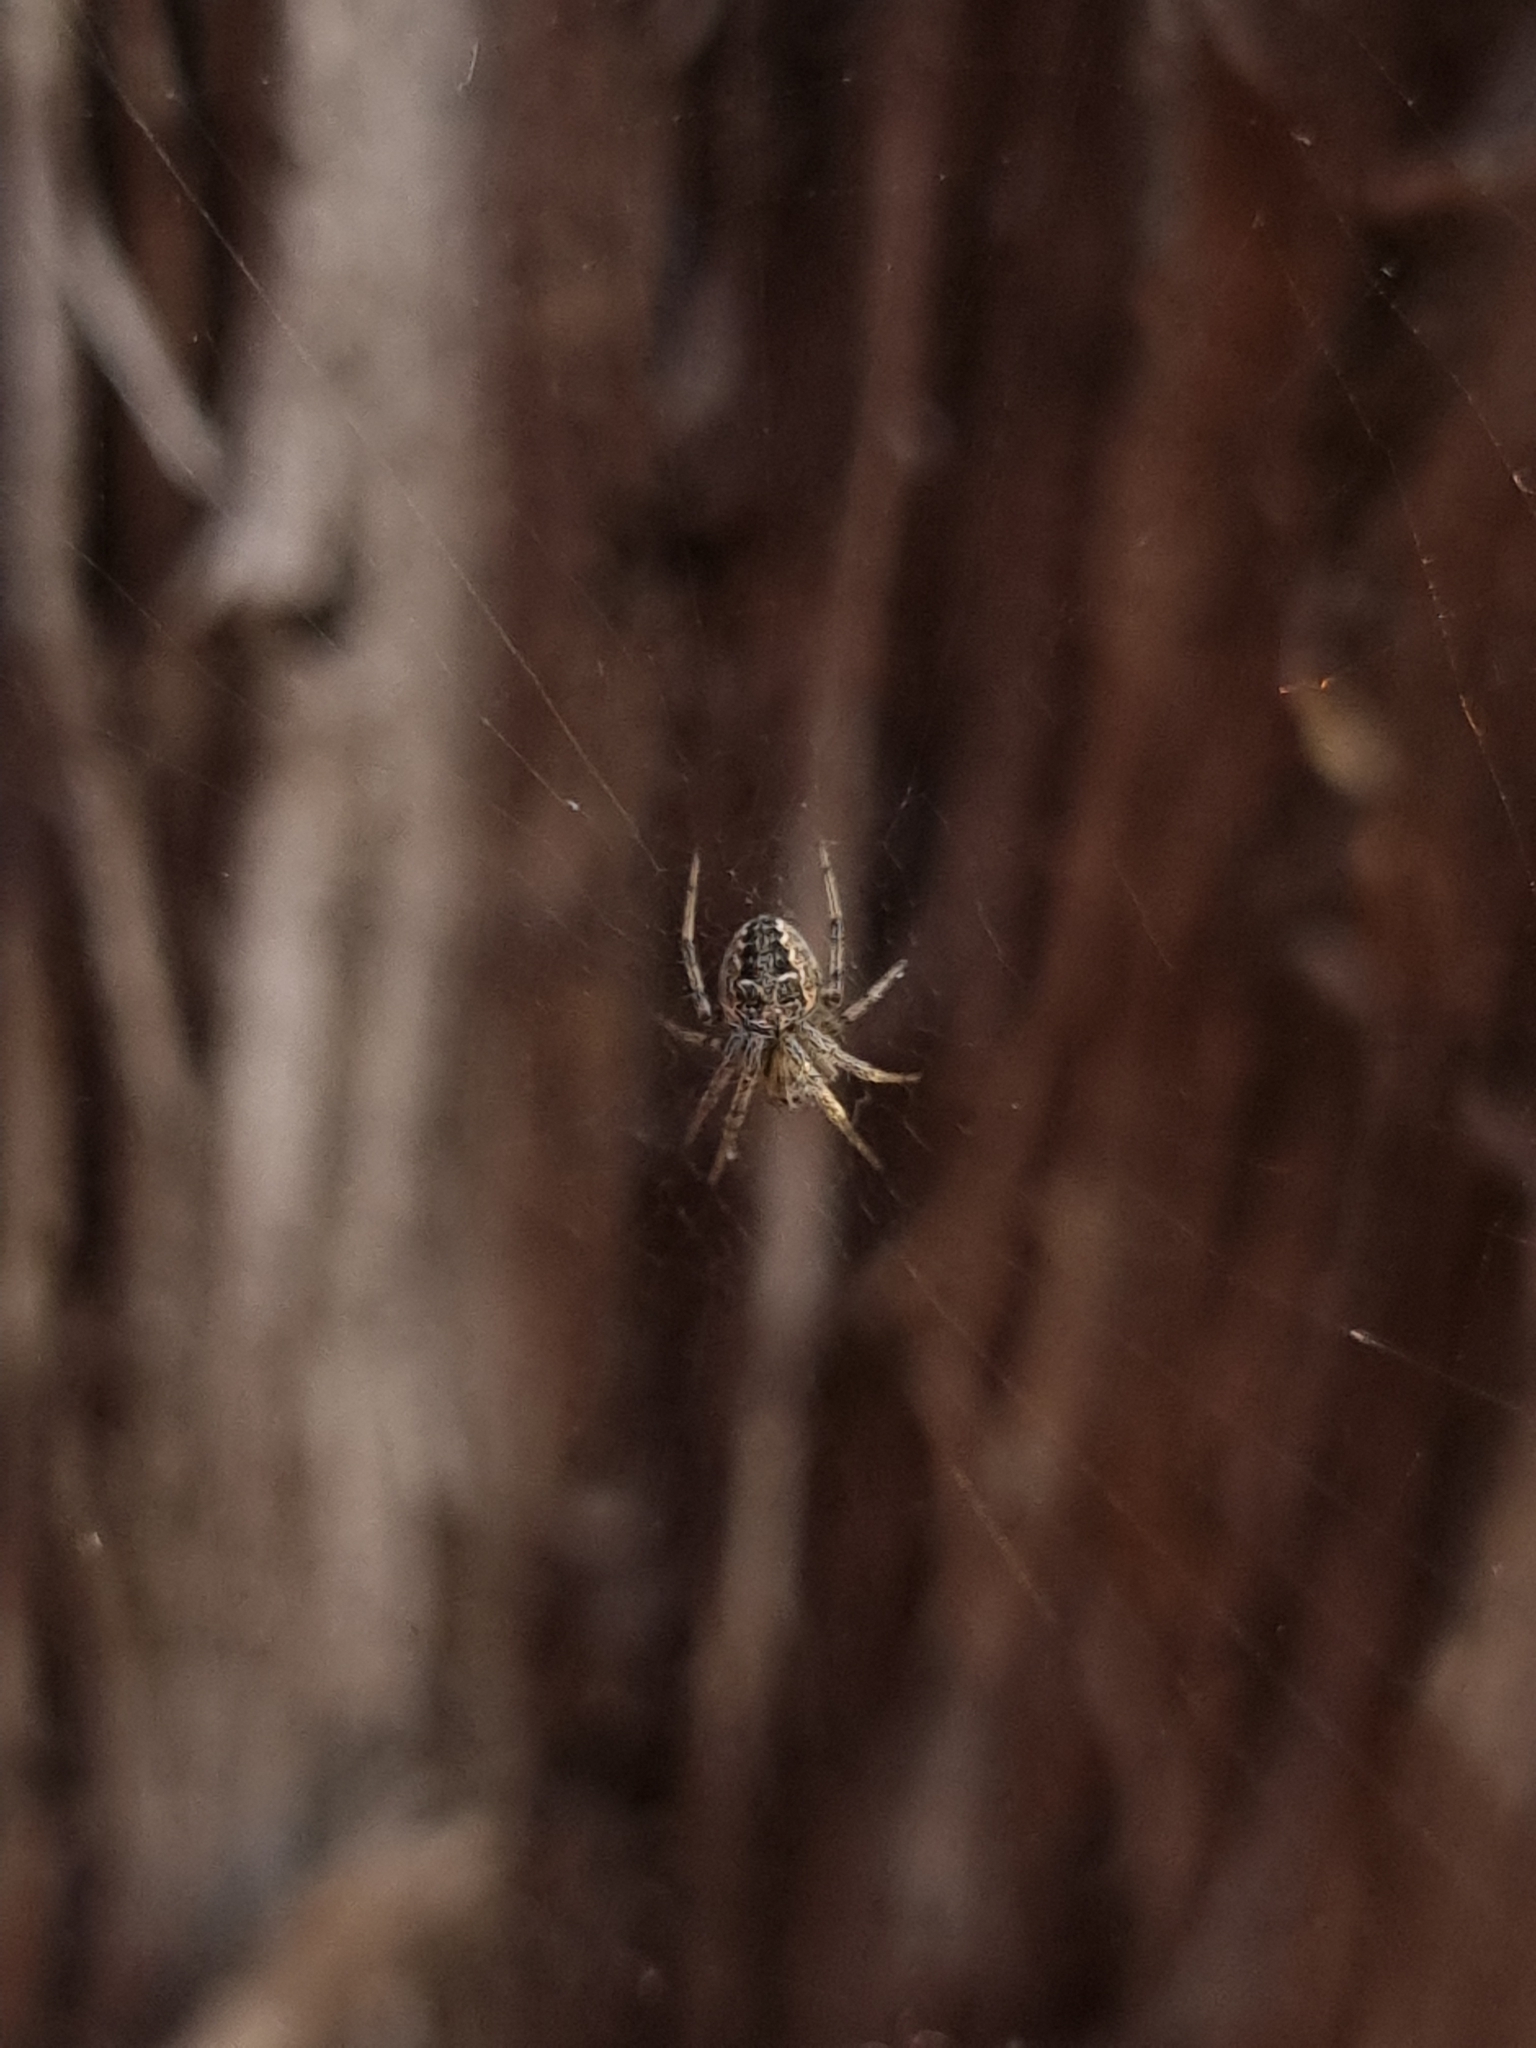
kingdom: Animalia
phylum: Arthropoda
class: Arachnida
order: Araneae
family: Araneidae
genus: Metepeira
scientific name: Metepeira
